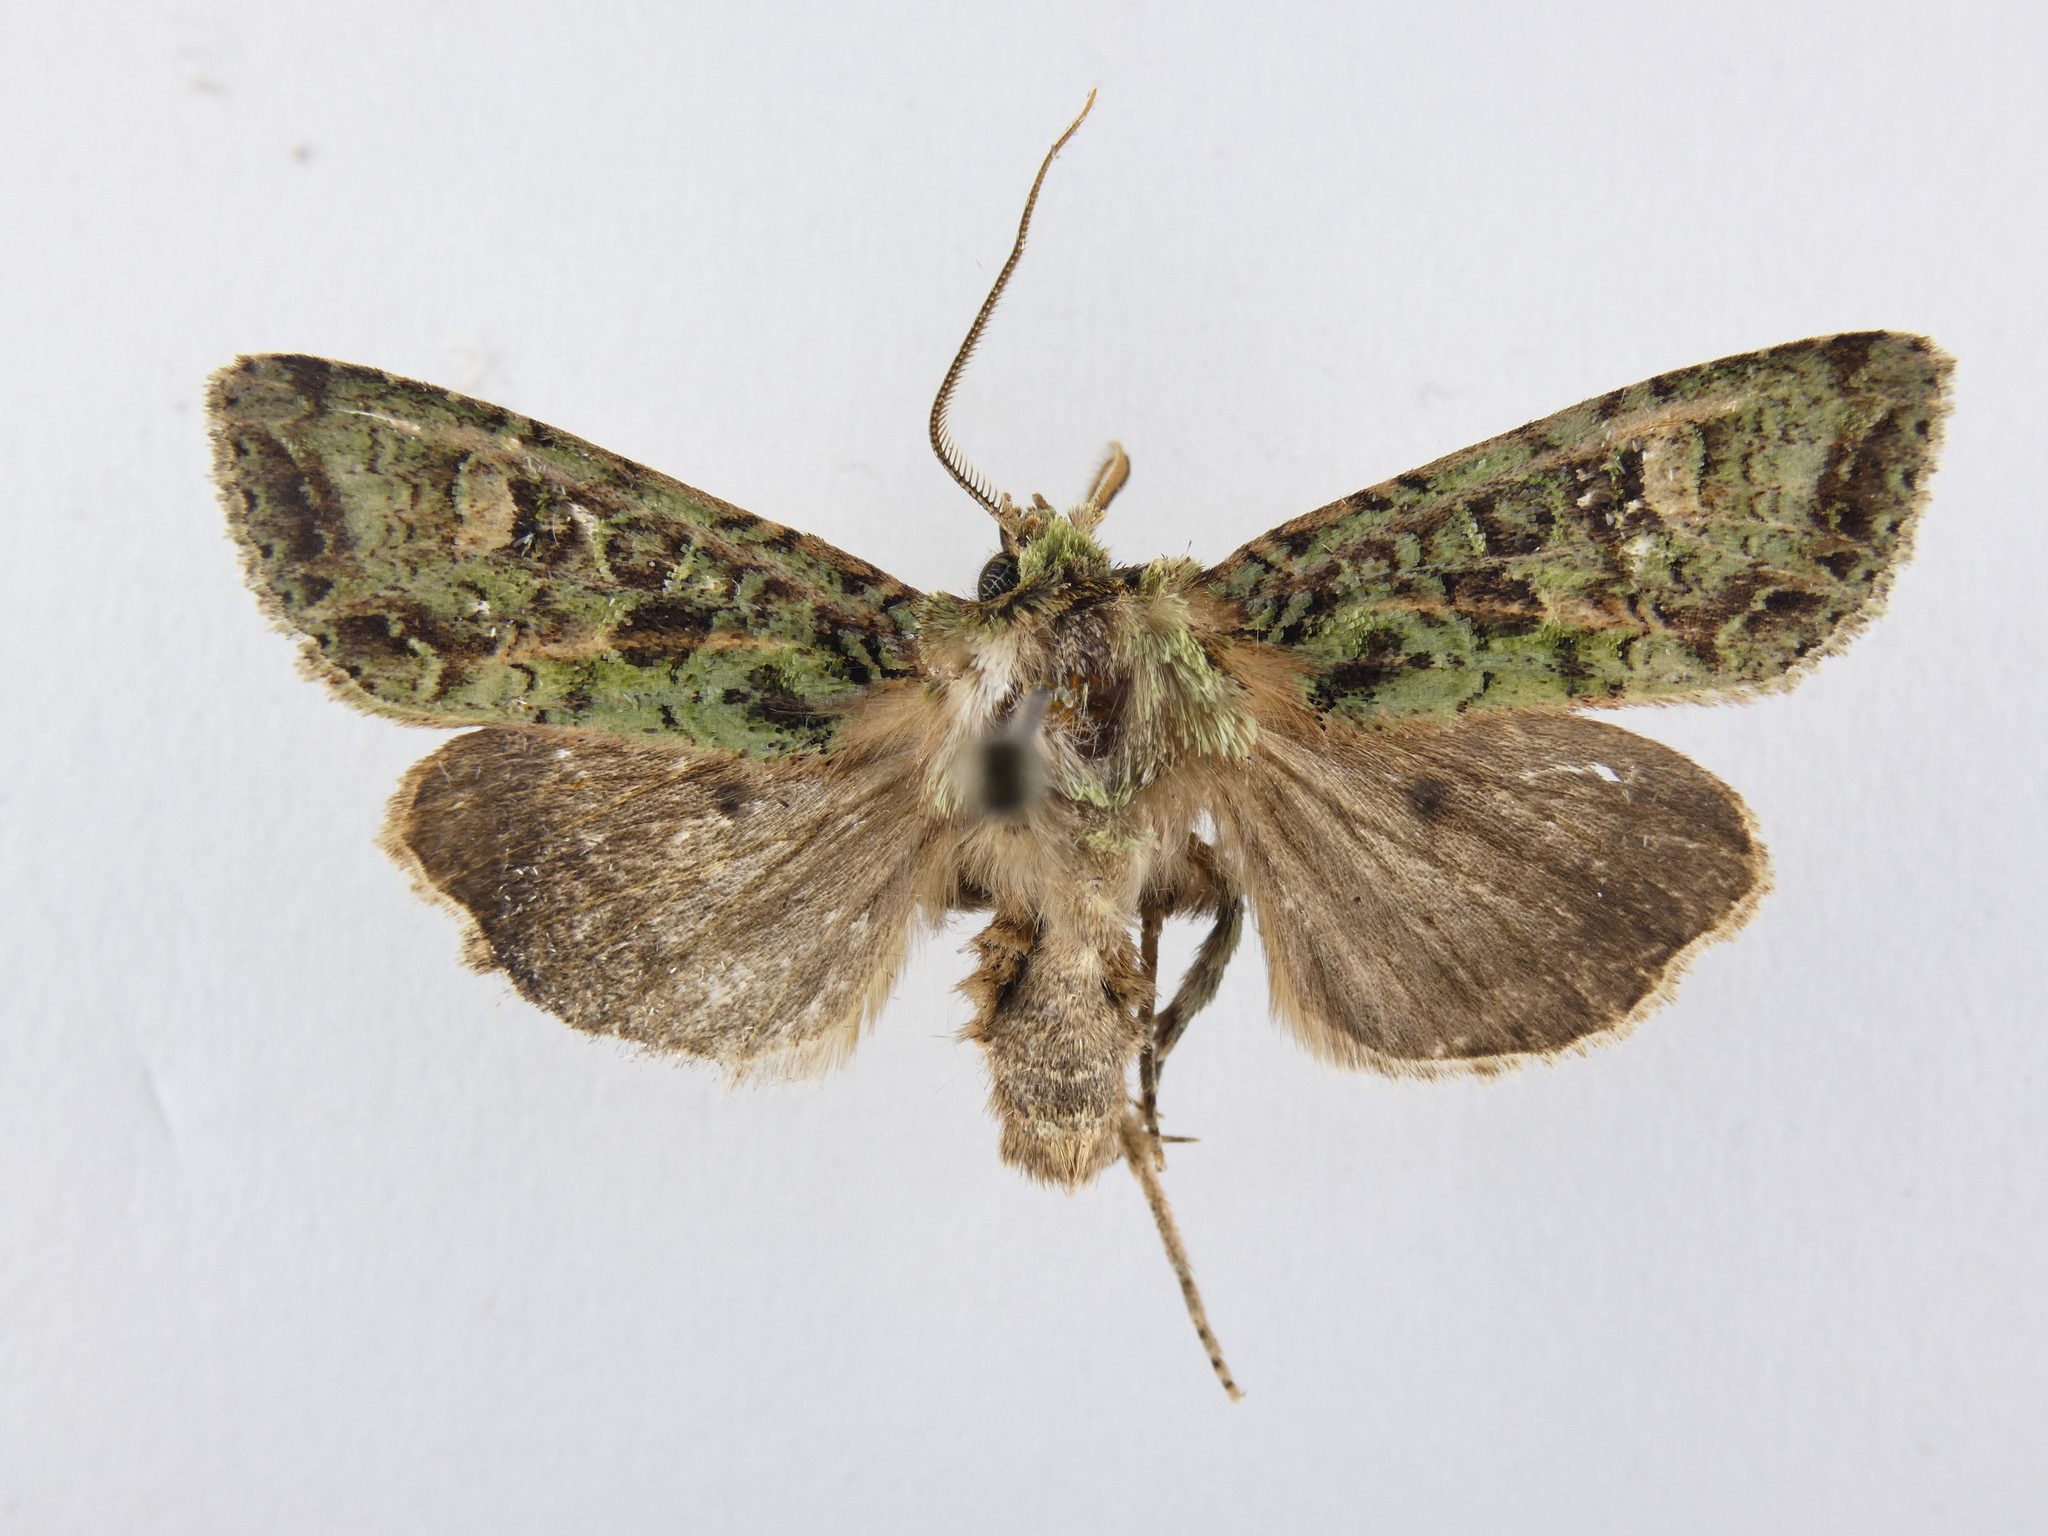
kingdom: Animalia
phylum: Arthropoda
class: Insecta
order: Lepidoptera
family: Noctuidae
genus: Ichneutica
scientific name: Ichneutica
